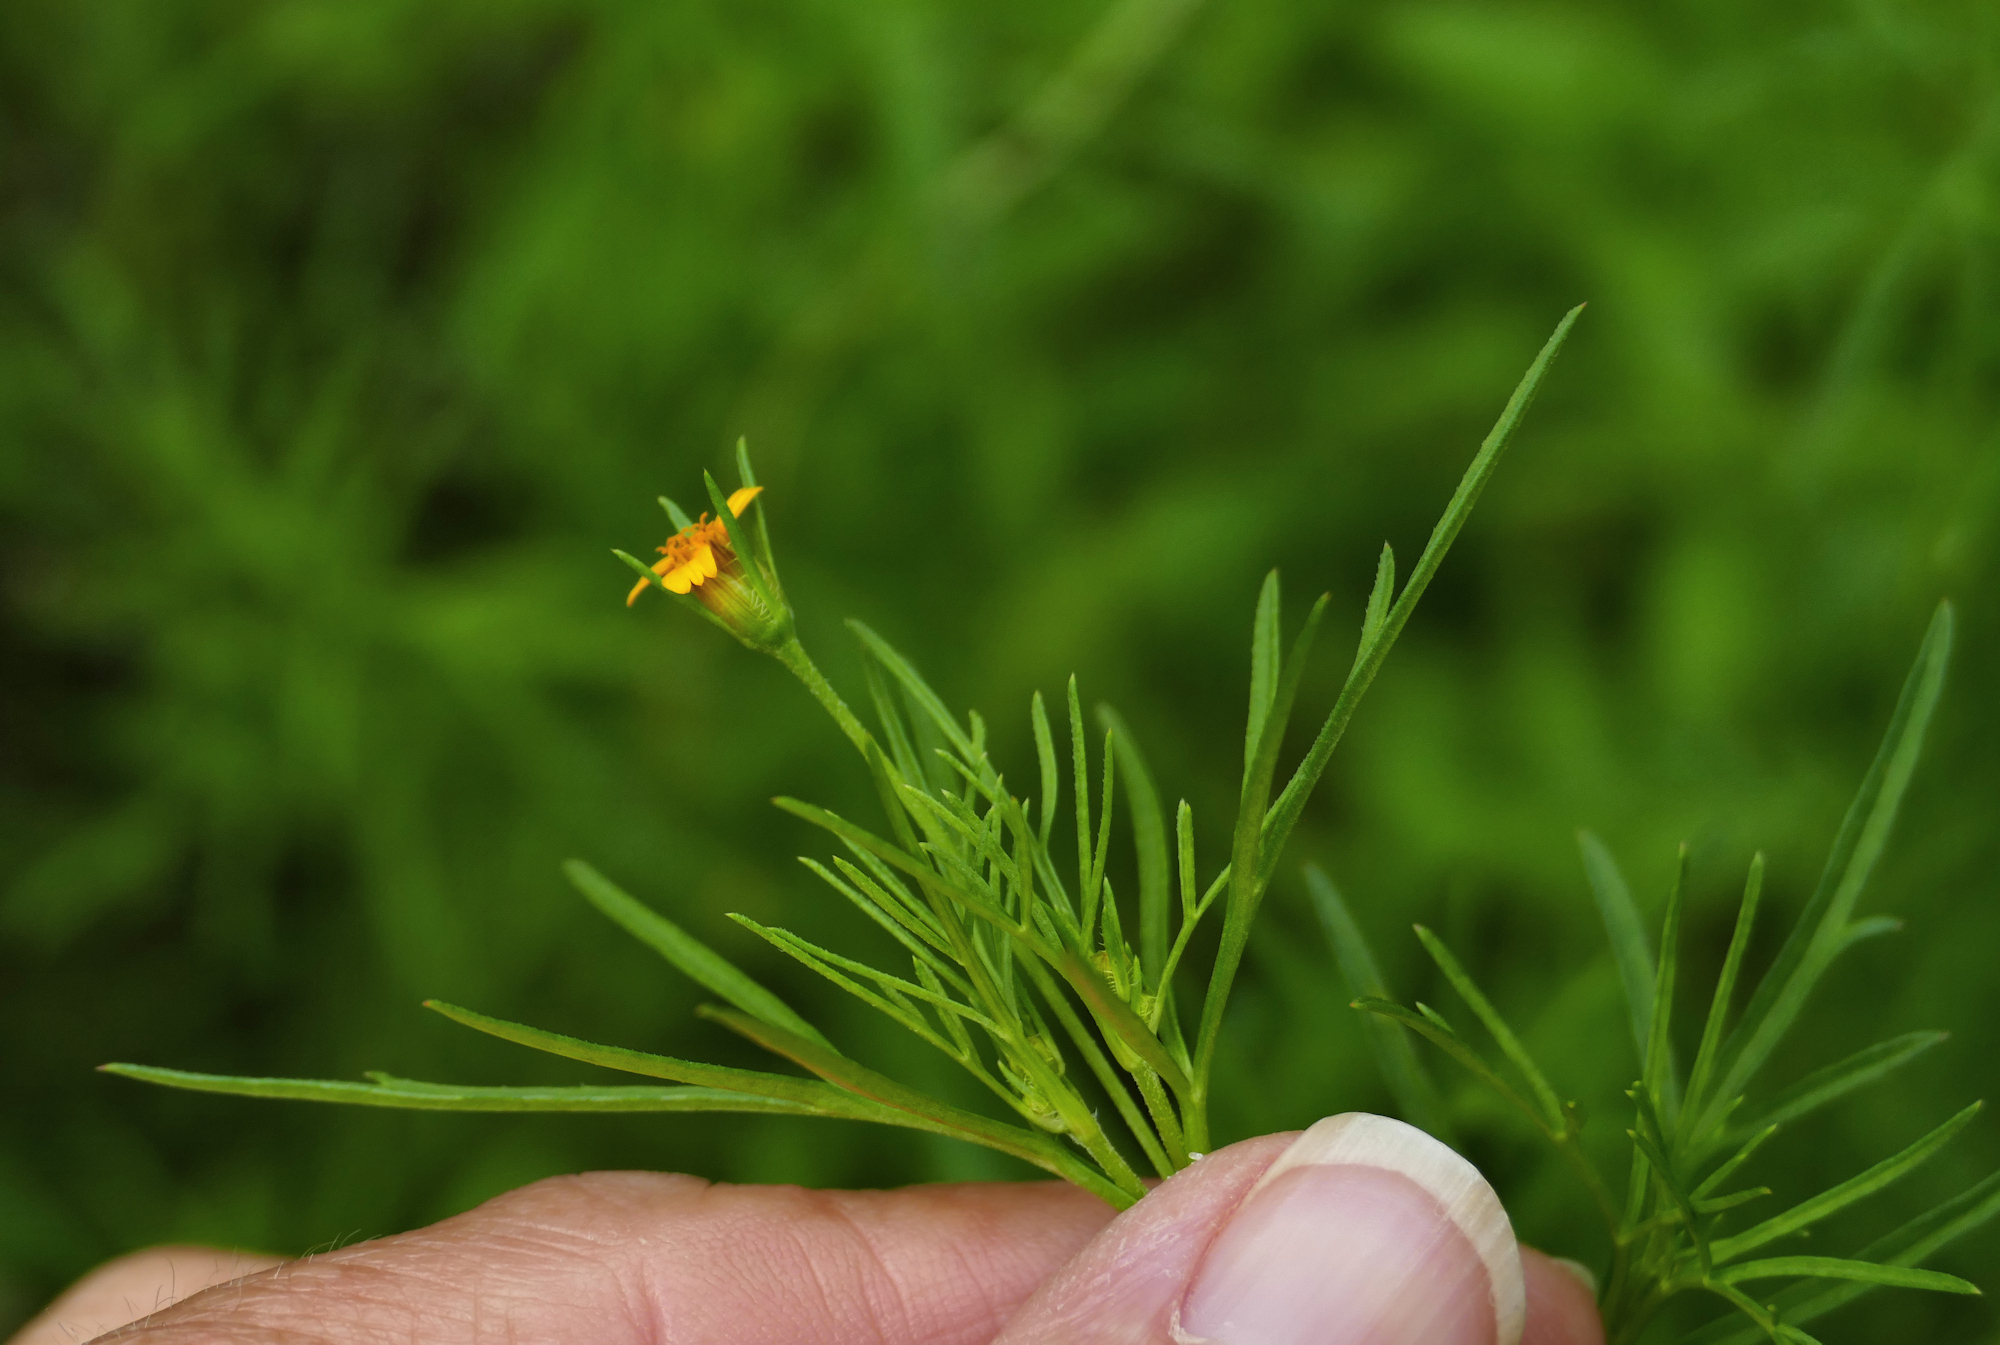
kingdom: Plantae
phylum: Tracheophyta
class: Magnoliopsida
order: Asterales
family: Asteraceae
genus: Heterosperma
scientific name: Heterosperma pinnatum
